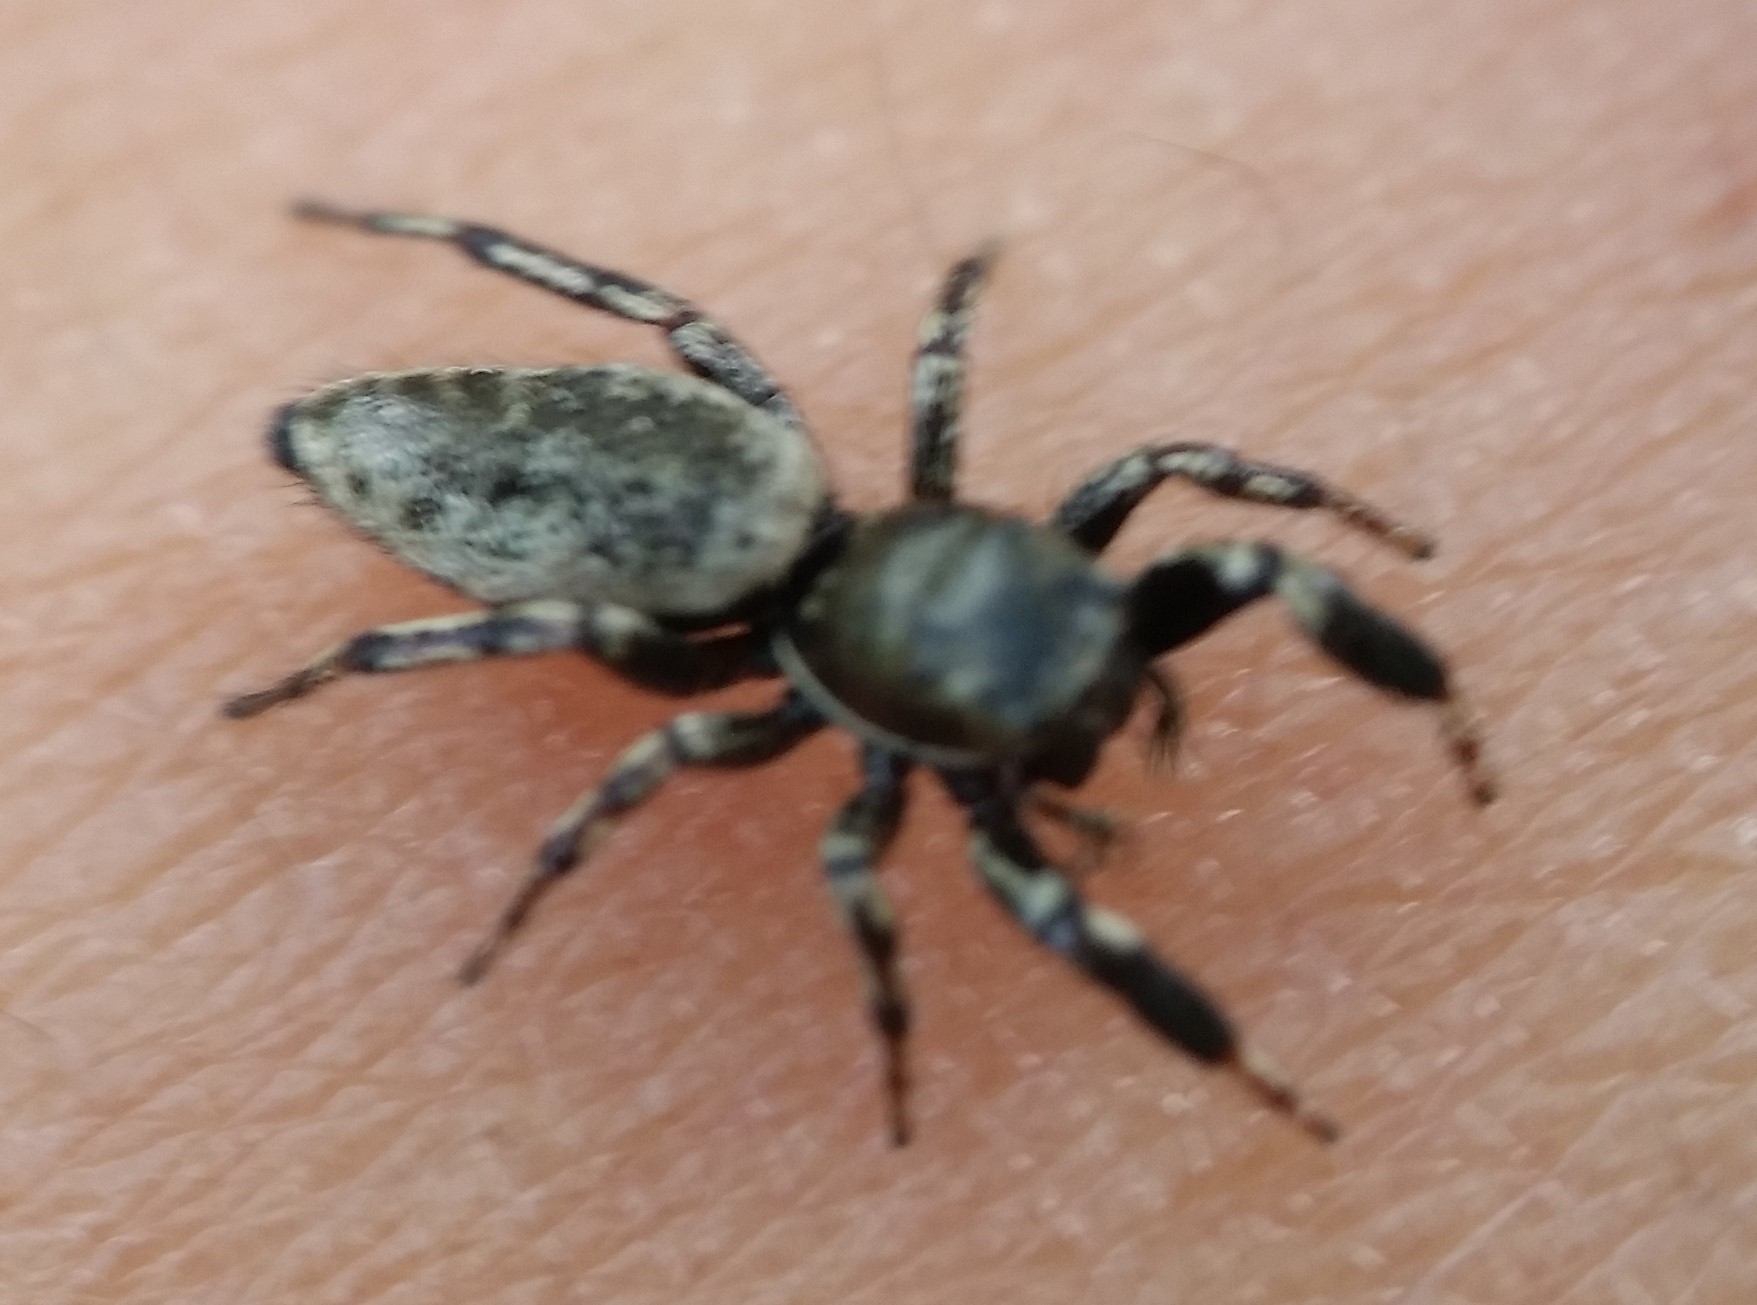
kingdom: Animalia
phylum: Arthropoda
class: Arachnida
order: Araneae
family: Salticidae
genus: Tutelina
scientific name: Tutelina harti
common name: Hart's jumping spider
